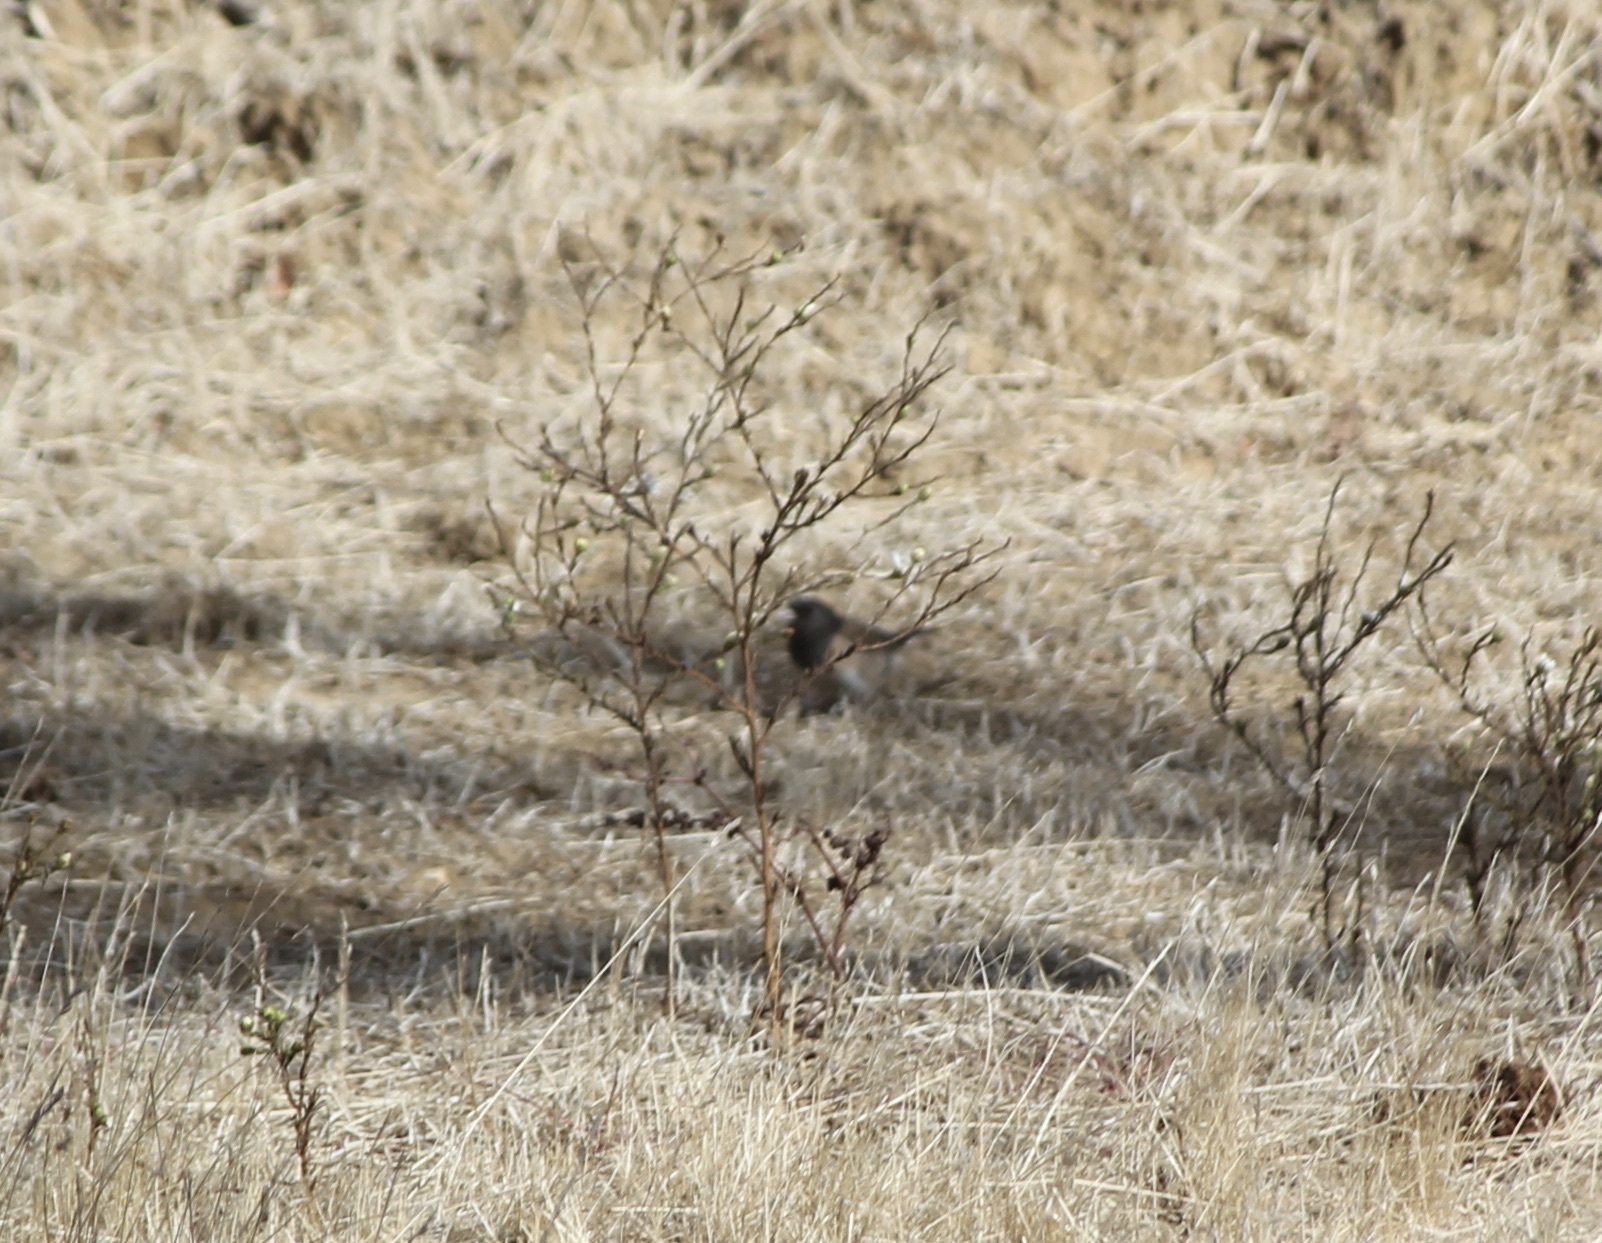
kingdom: Animalia
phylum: Chordata
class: Aves
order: Passeriformes
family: Passerellidae
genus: Junco
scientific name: Junco hyemalis
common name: Dark-eyed junco
